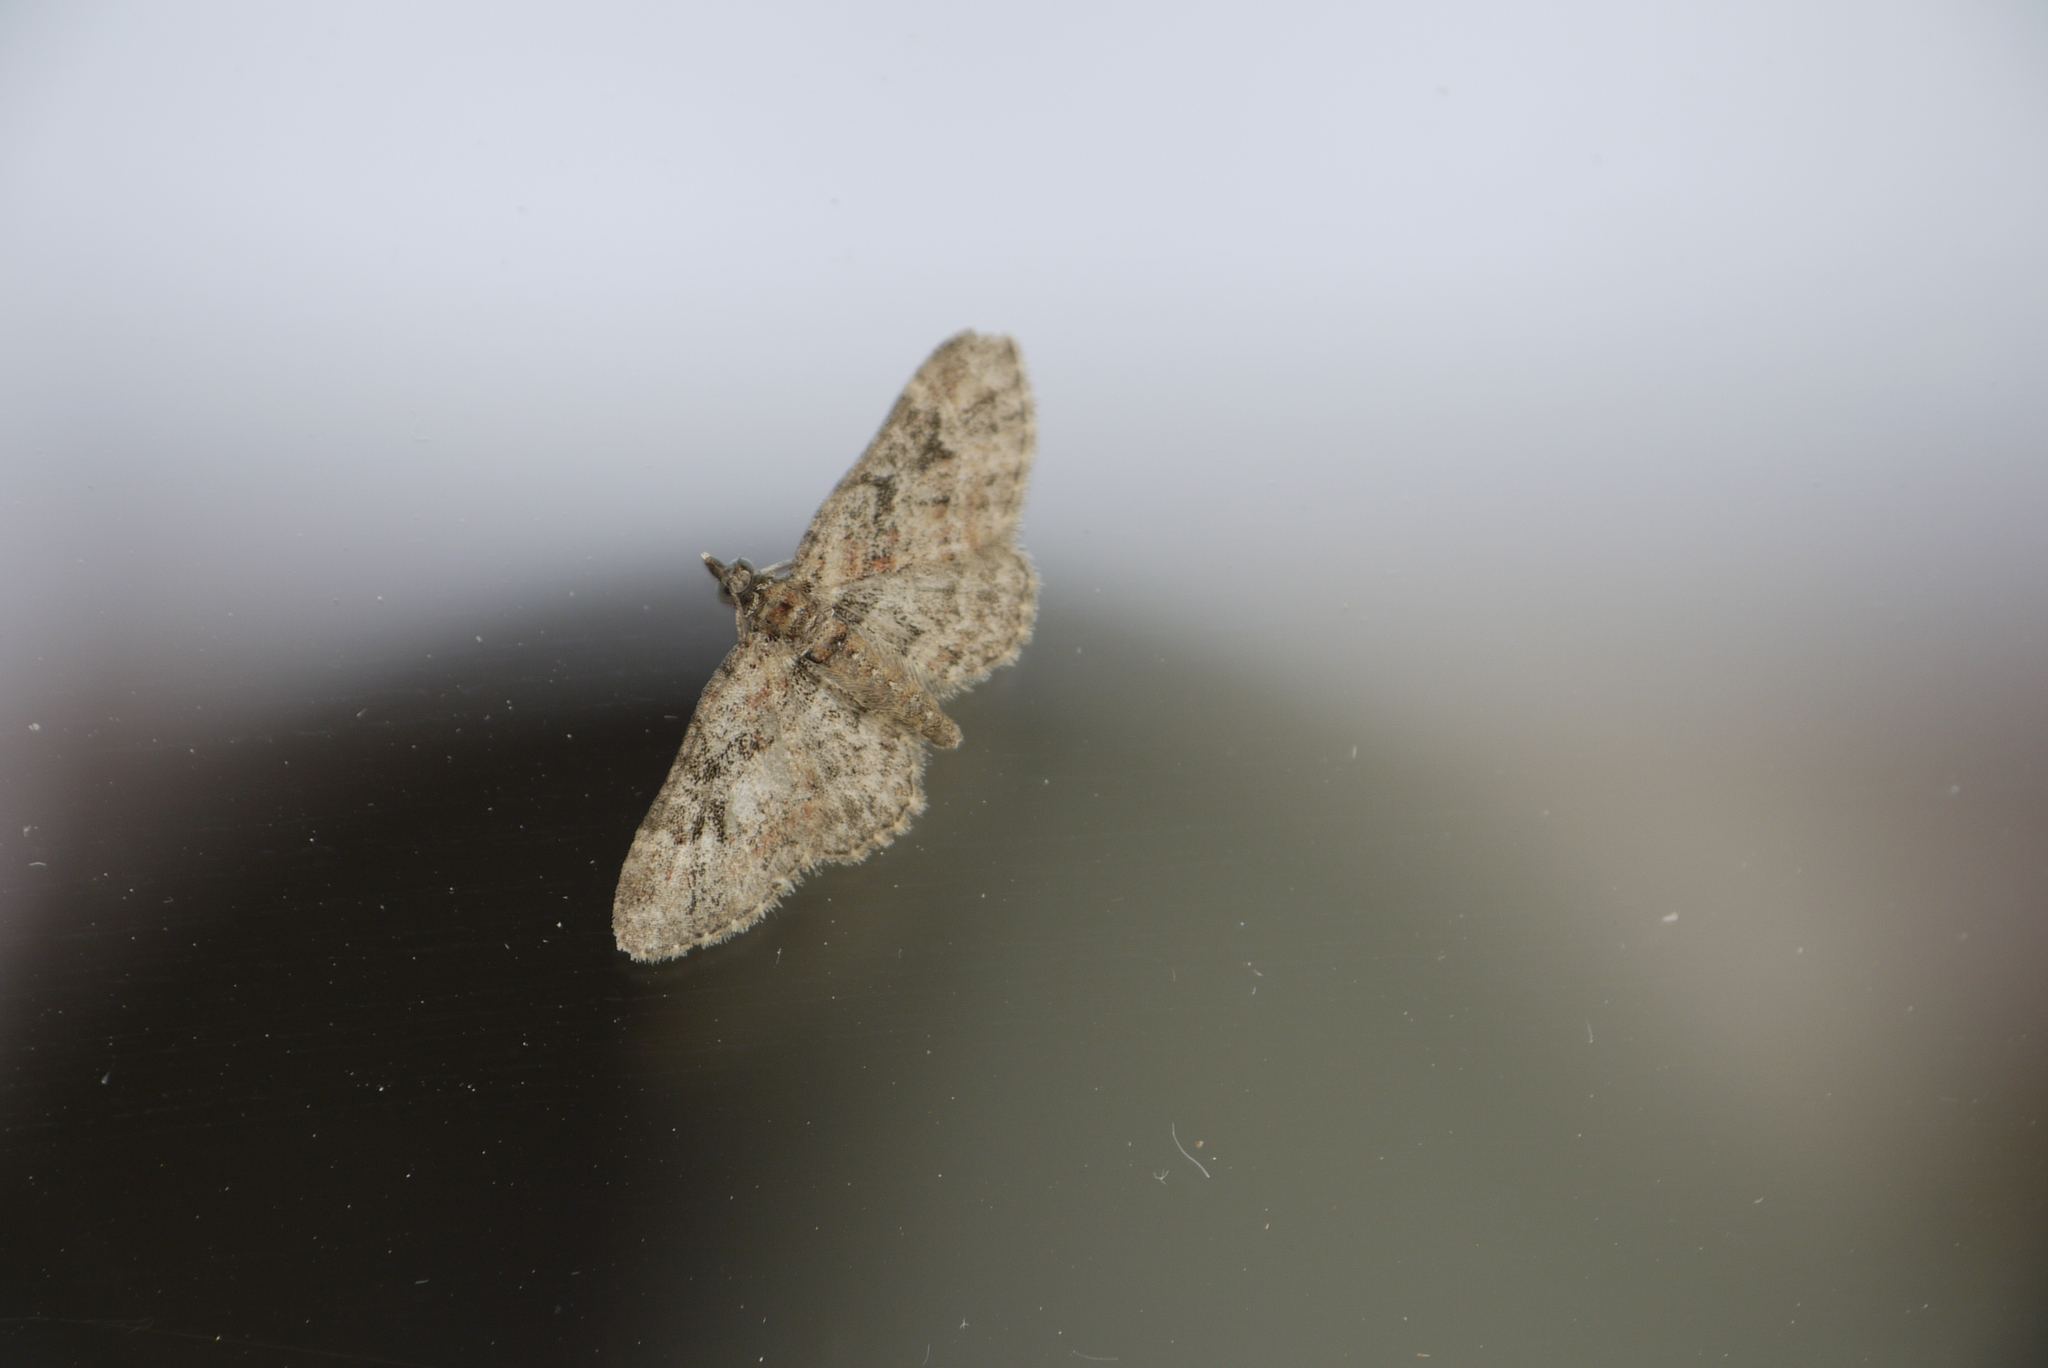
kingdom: Animalia
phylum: Arthropoda
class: Insecta
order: Lepidoptera
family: Geometridae
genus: Gymnoscelis
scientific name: Gymnoscelis rufifasciata
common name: Double-striped pug
